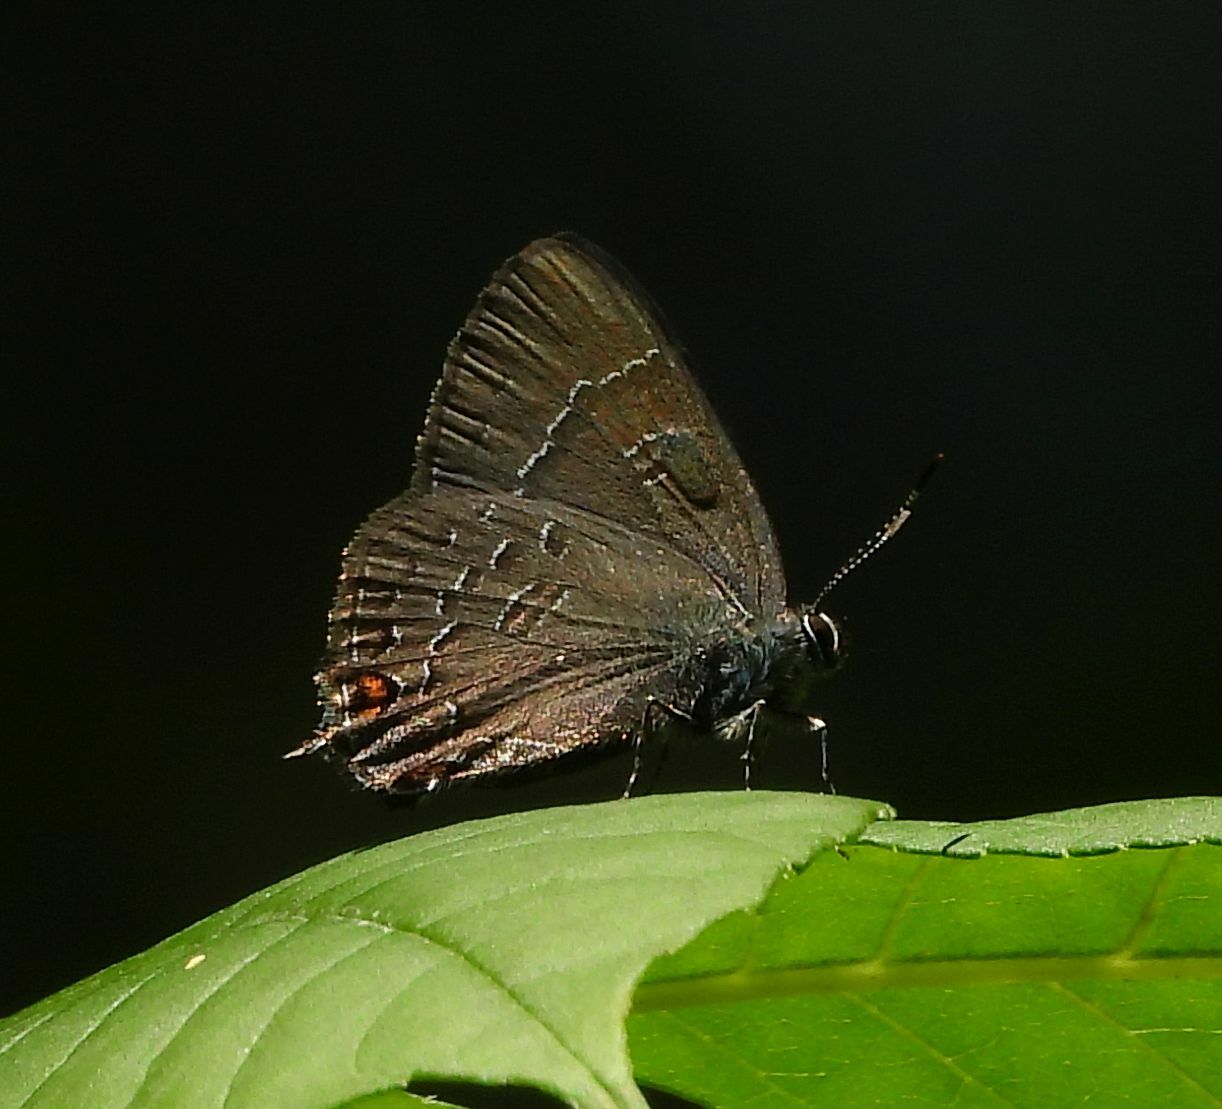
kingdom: Animalia
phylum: Arthropoda
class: Insecta
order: Lepidoptera
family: Lycaenidae
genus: Satyrium
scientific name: Satyrium calanus
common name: Banded hairstreak
